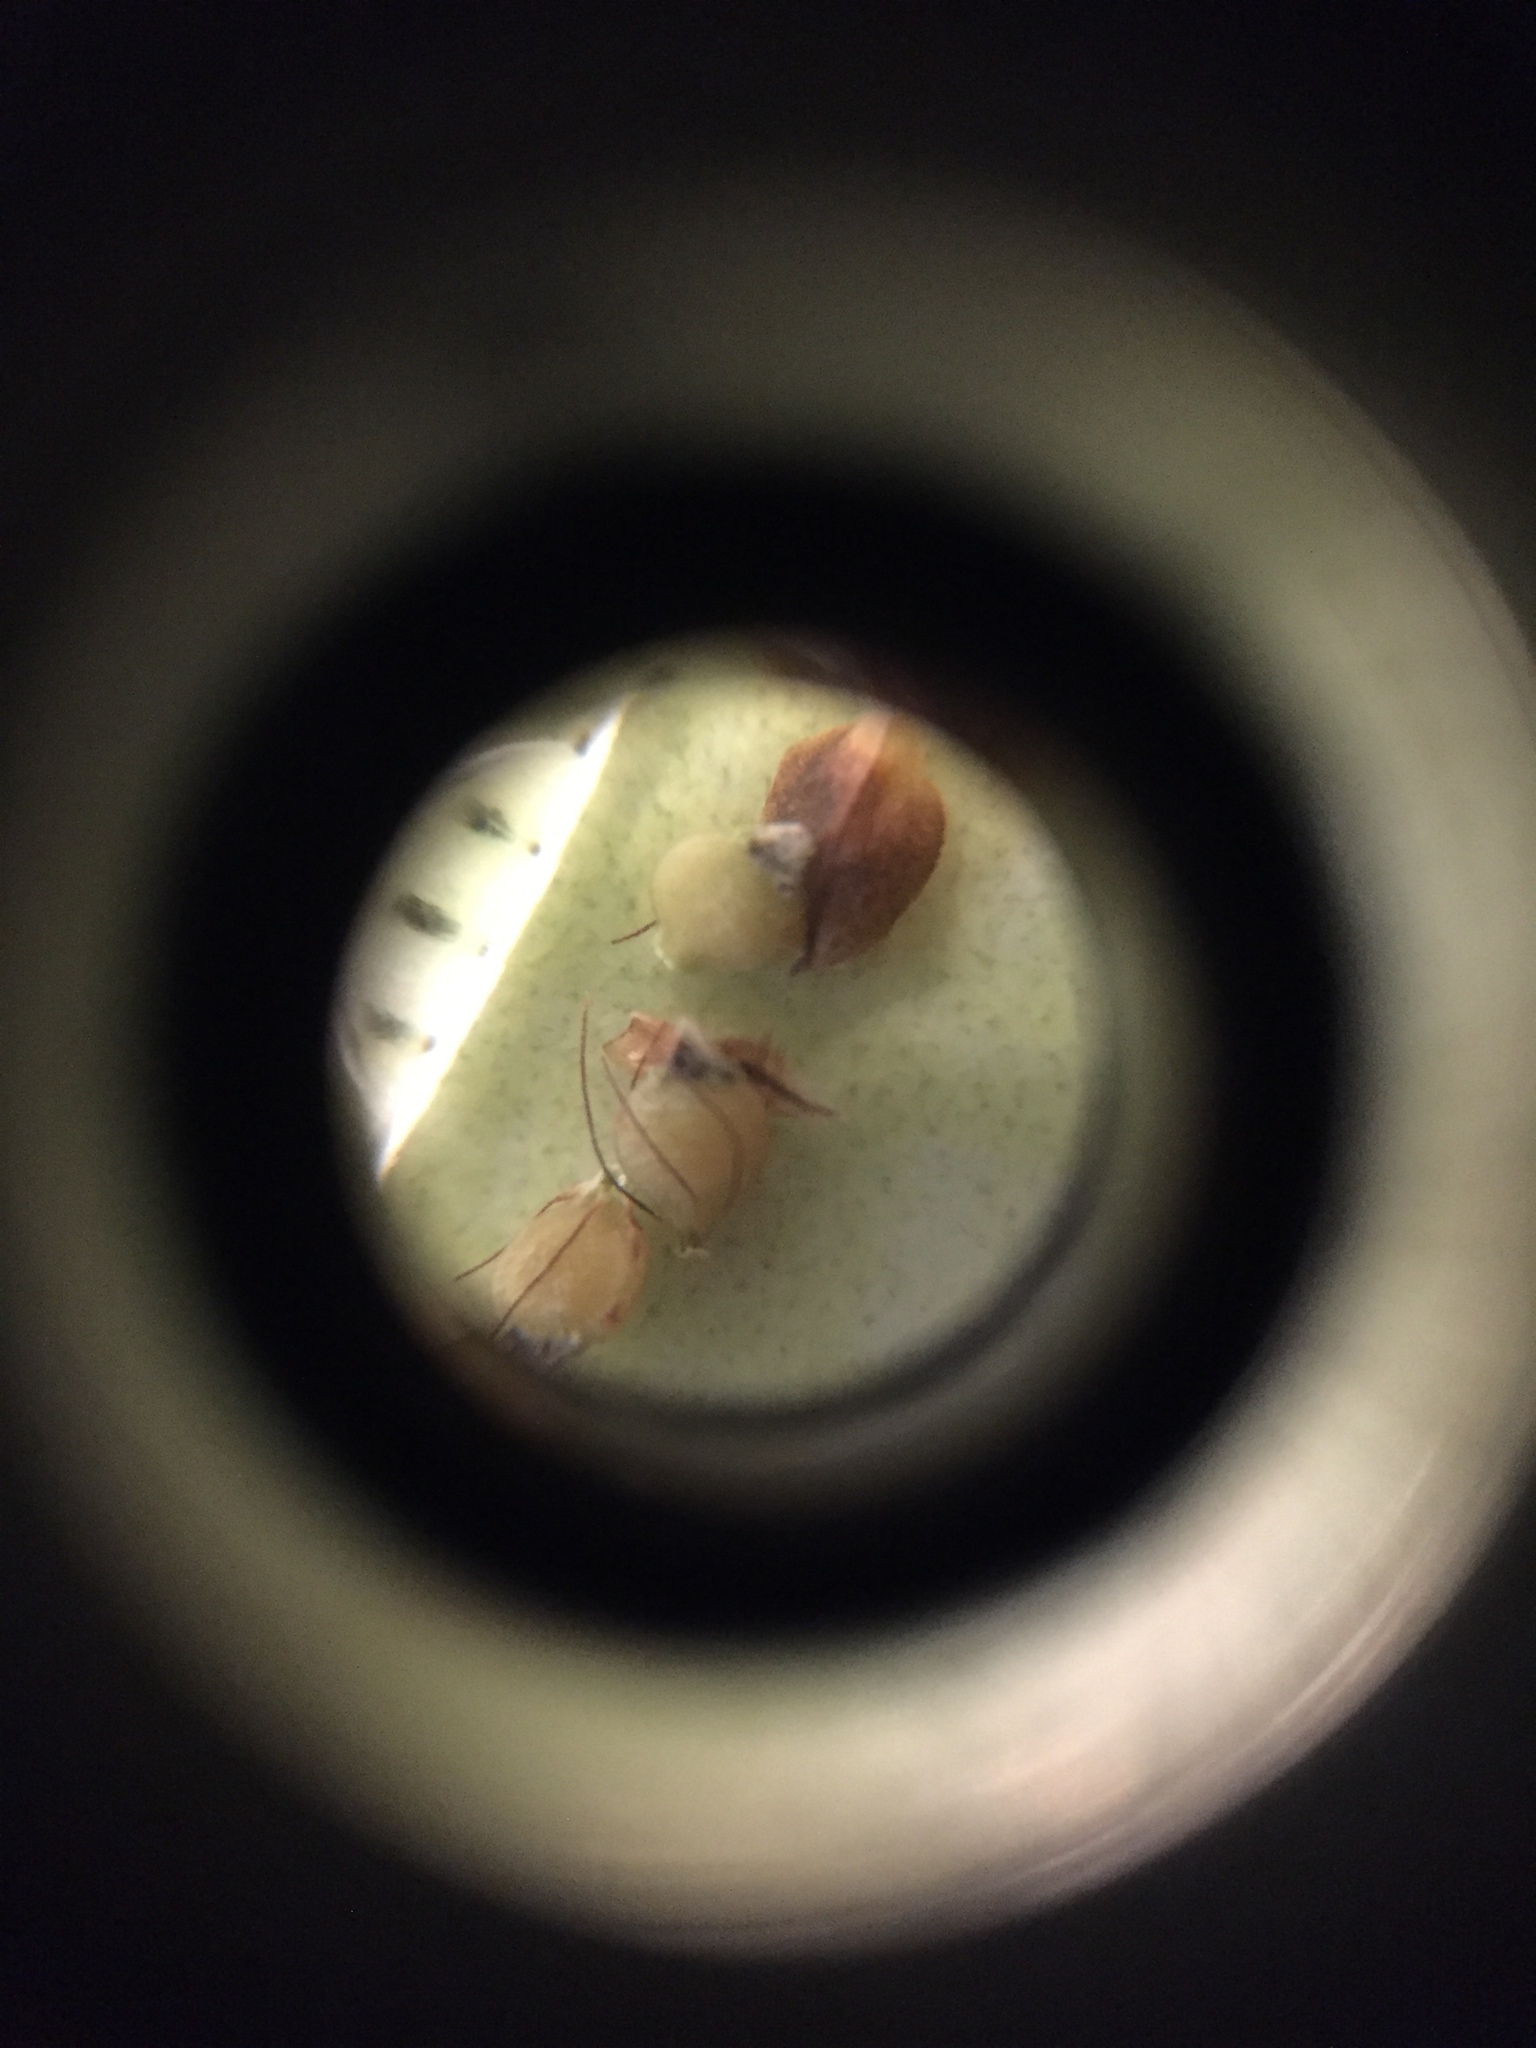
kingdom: Plantae
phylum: Tracheophyta
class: Liliopsida
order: Poales
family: Cyperaceae
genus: Rhynchospora
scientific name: Rhynchospora caduca
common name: Anglestem beaksedge
